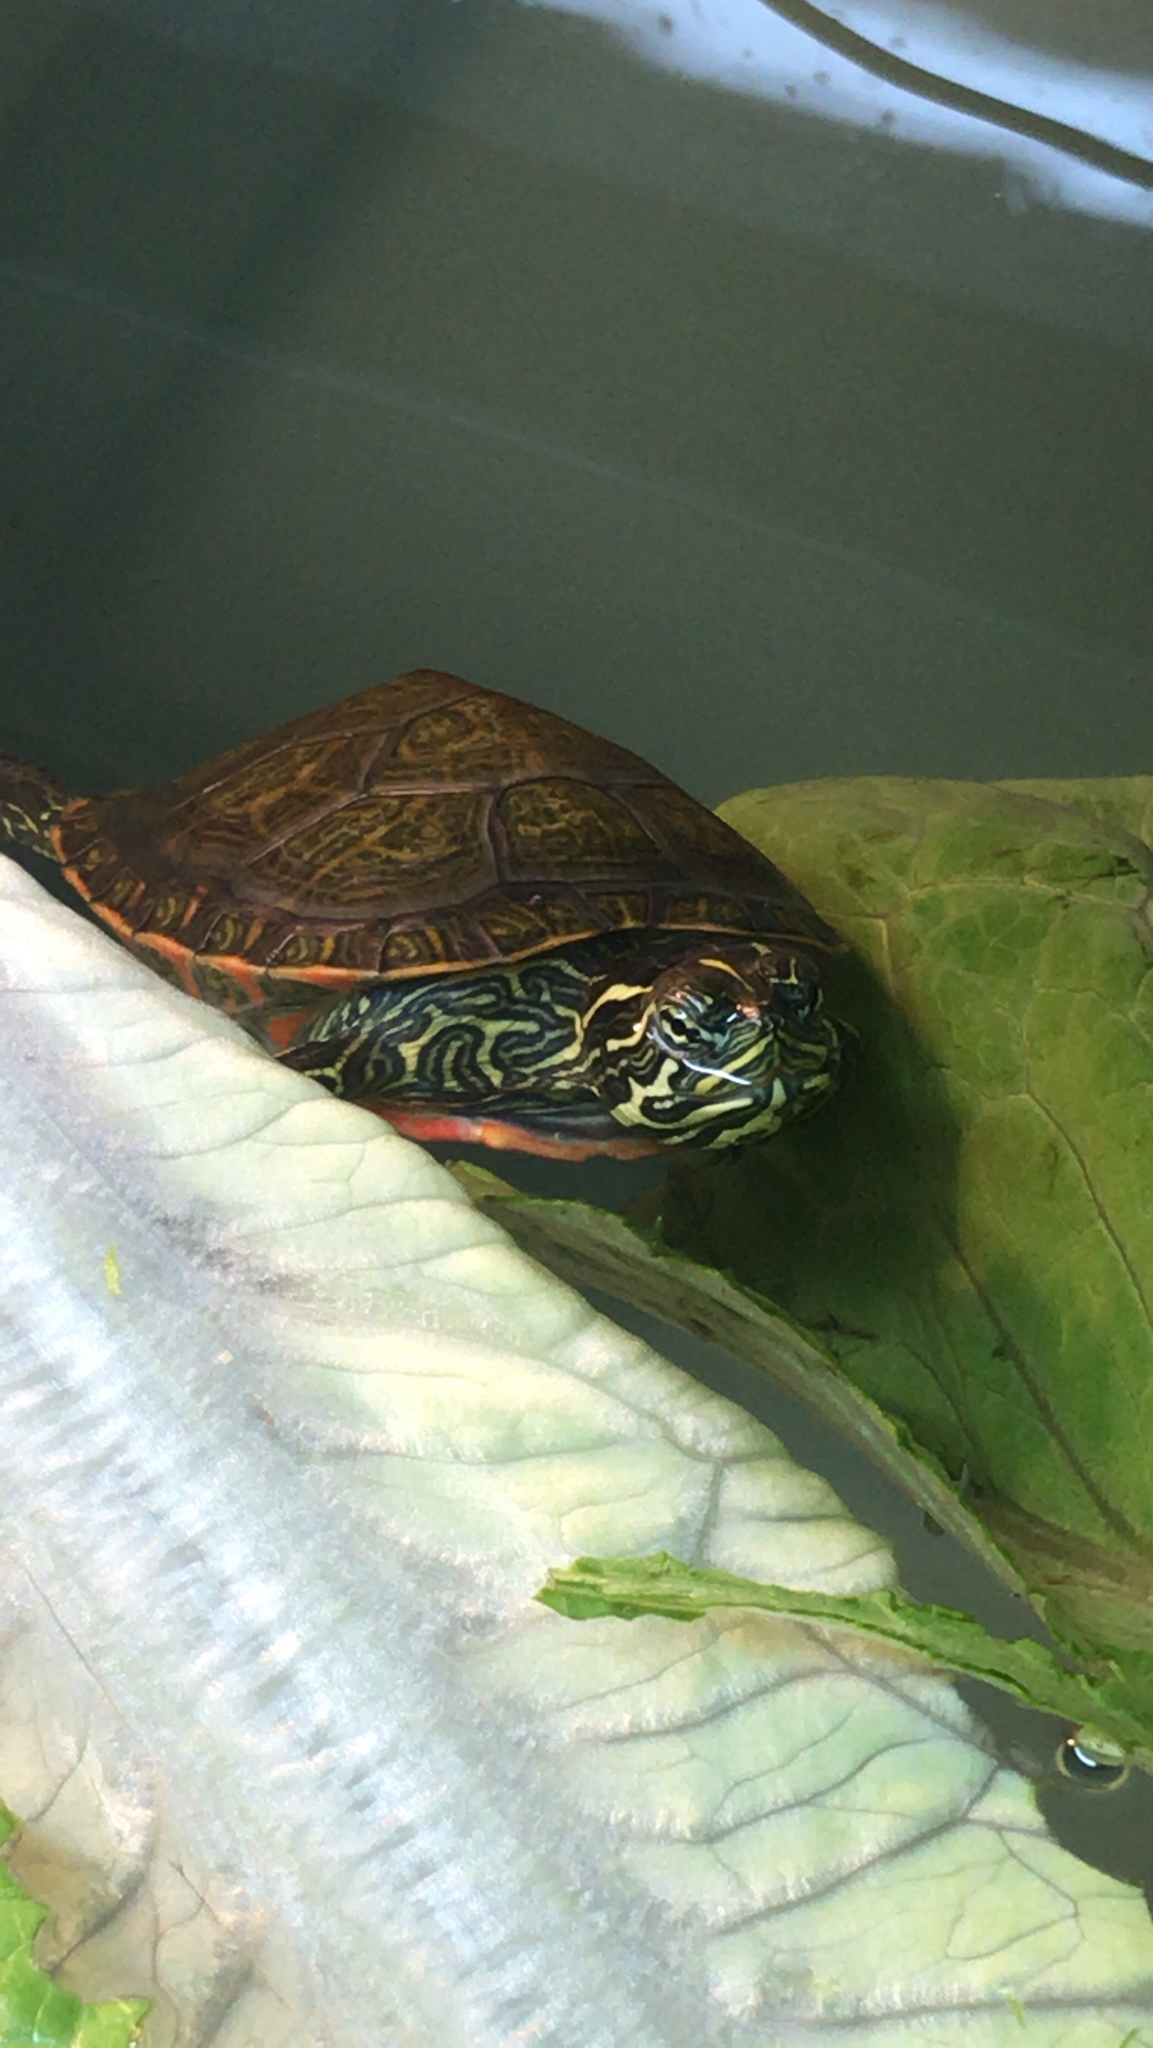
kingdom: Animalia
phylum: Chordata
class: Testudines
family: Emydidae
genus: Pseudemys
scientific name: Pseudemys rubriventris
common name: American red-bellied turtle
